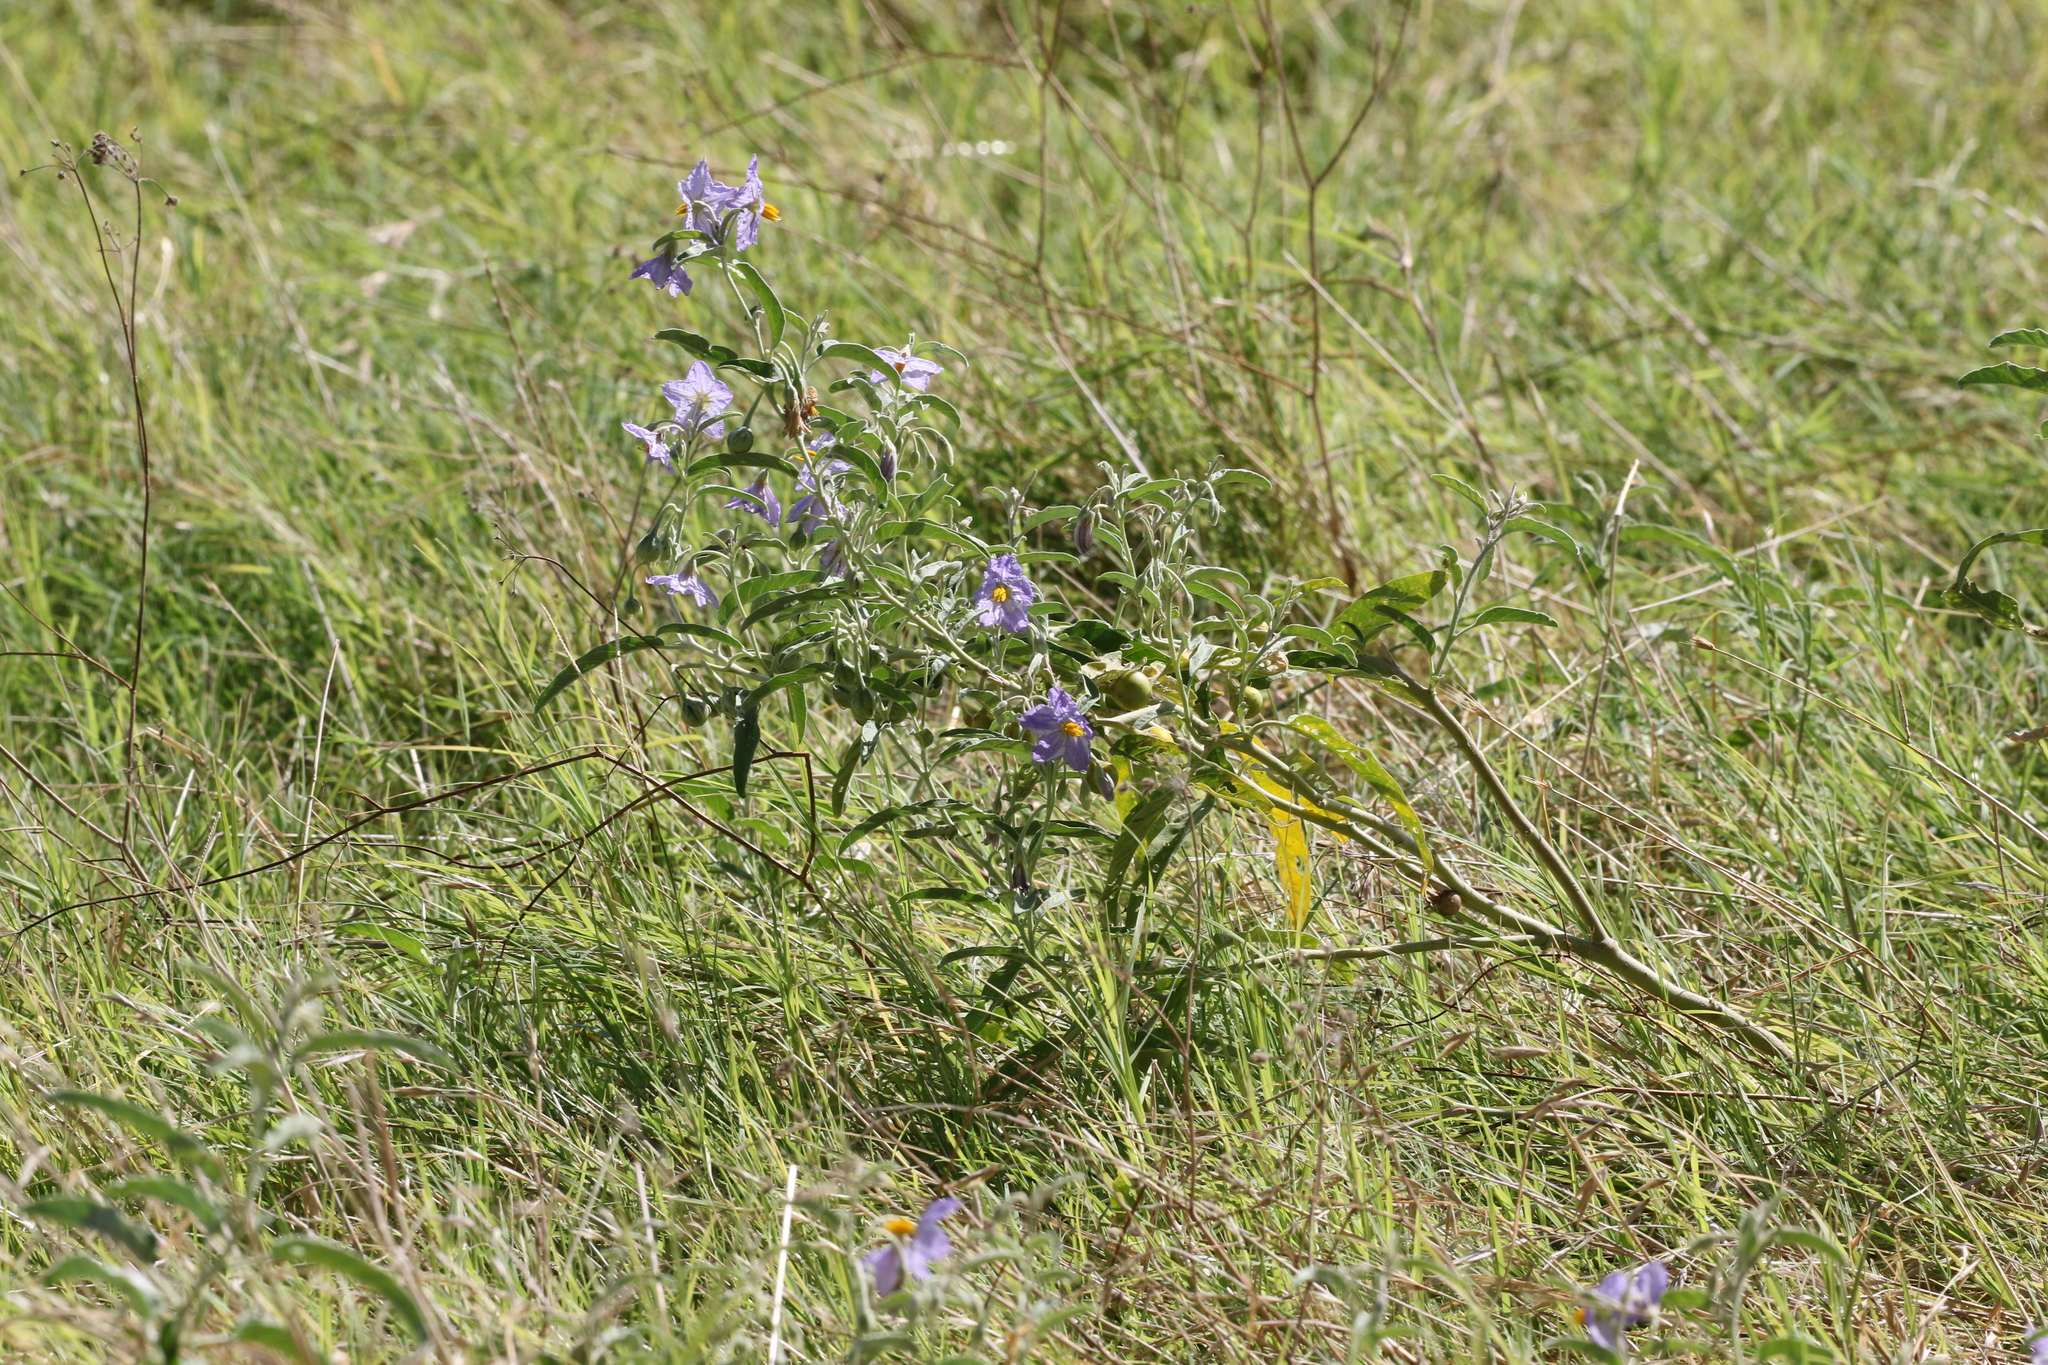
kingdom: Plantae
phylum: Tracheophyta
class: Magnoliopsida
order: Solanales
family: Solanaceae
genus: Solanum
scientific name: Solanum elaeagnifolium
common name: Silverleaf nightshade
